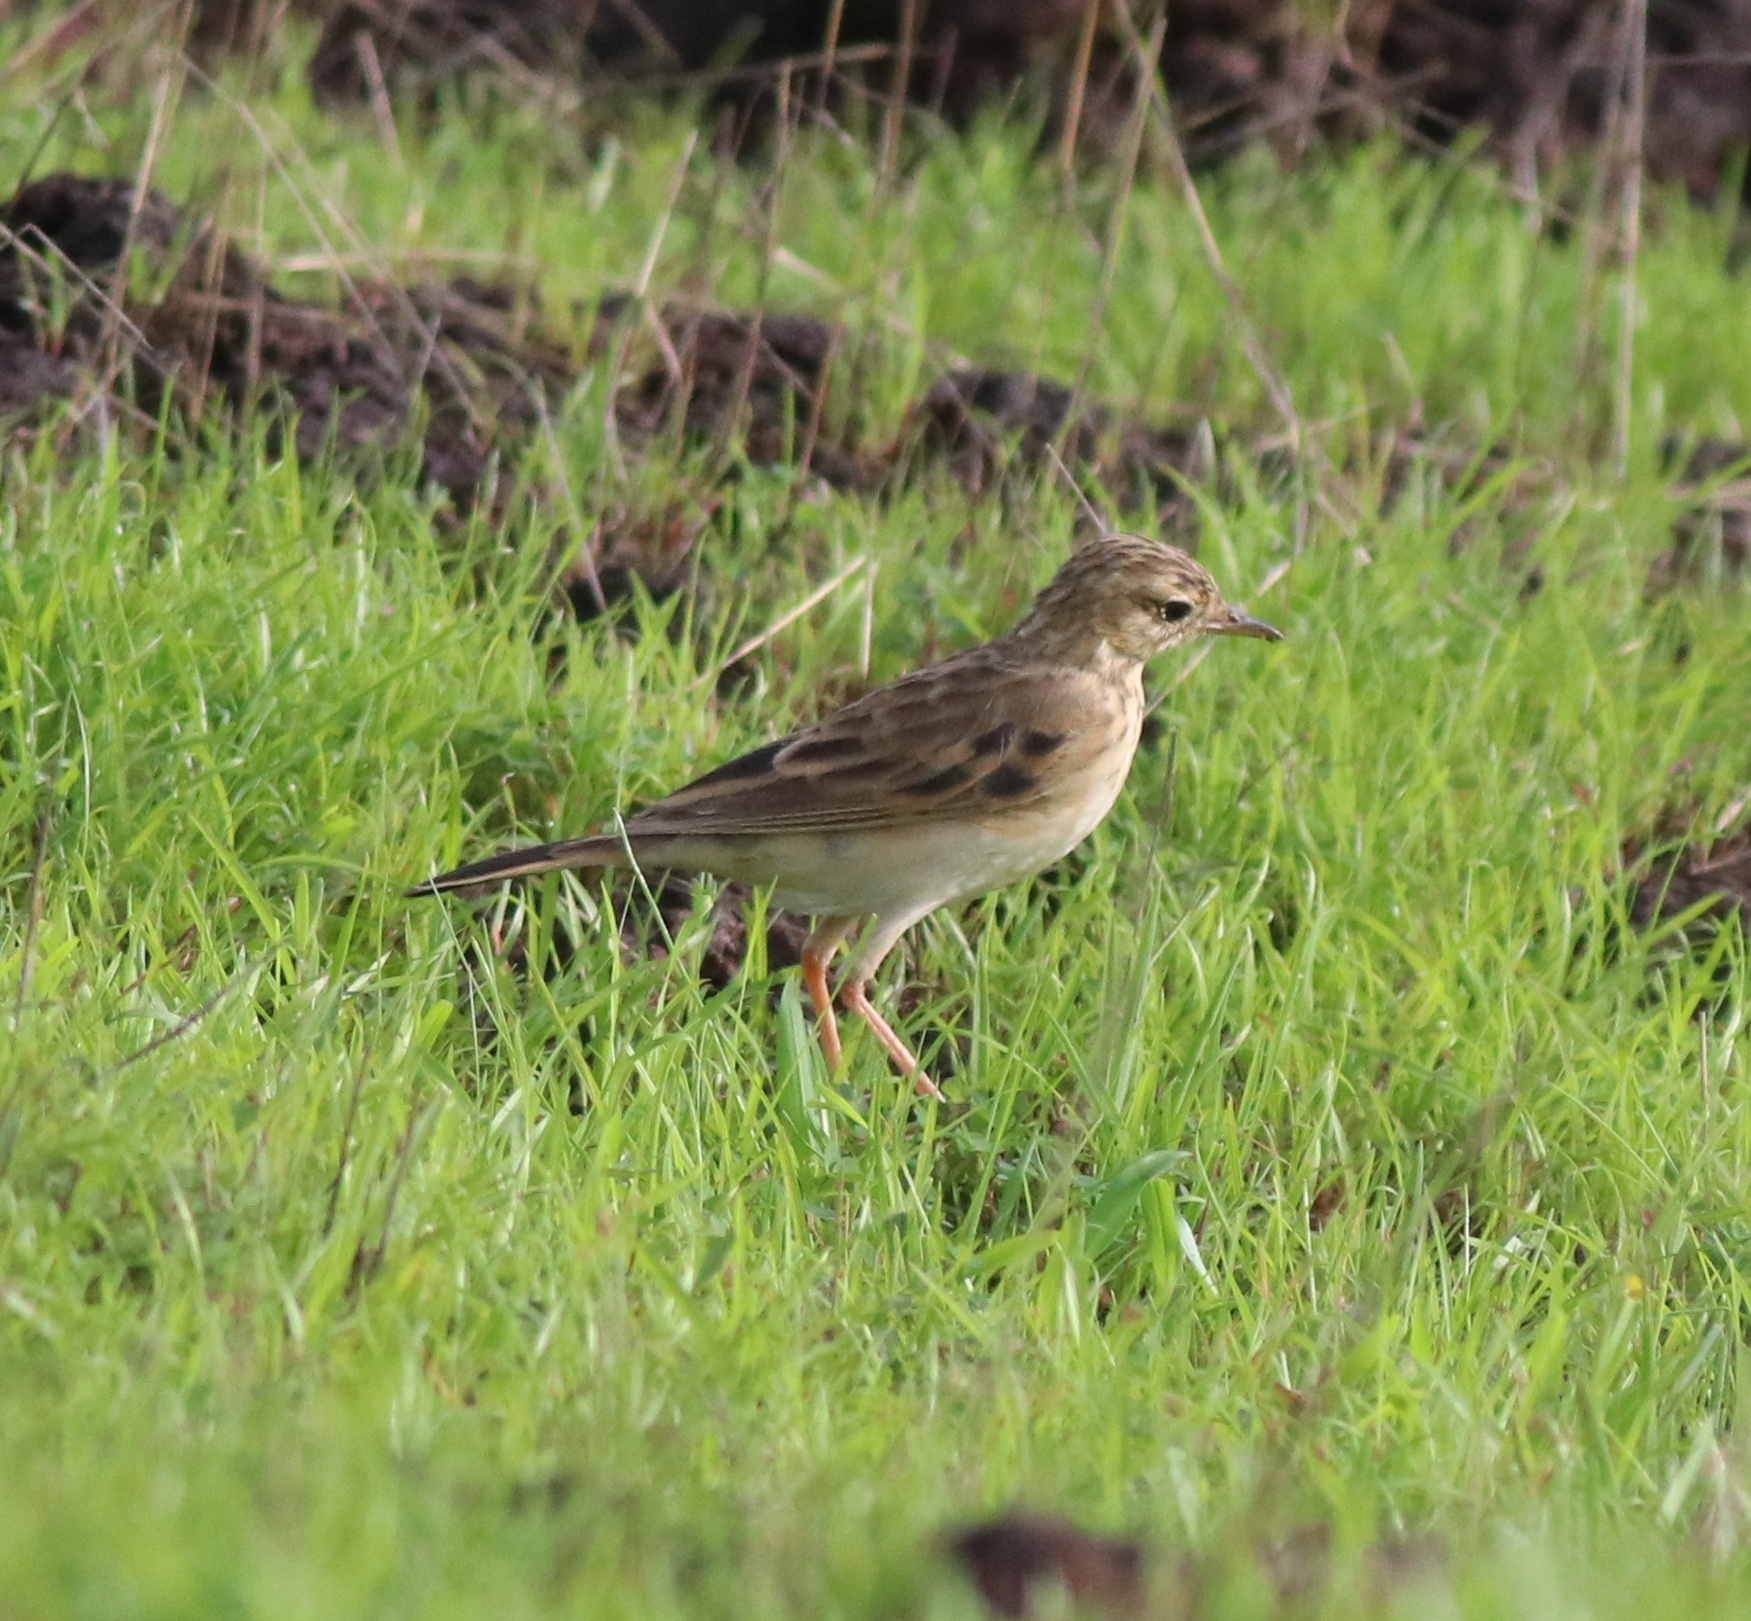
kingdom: Animalia
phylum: Chordata
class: Aves
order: Passeriformes
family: Motacillidae
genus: Anthus
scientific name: Anthus rufulus
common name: Paddyfield pipit
